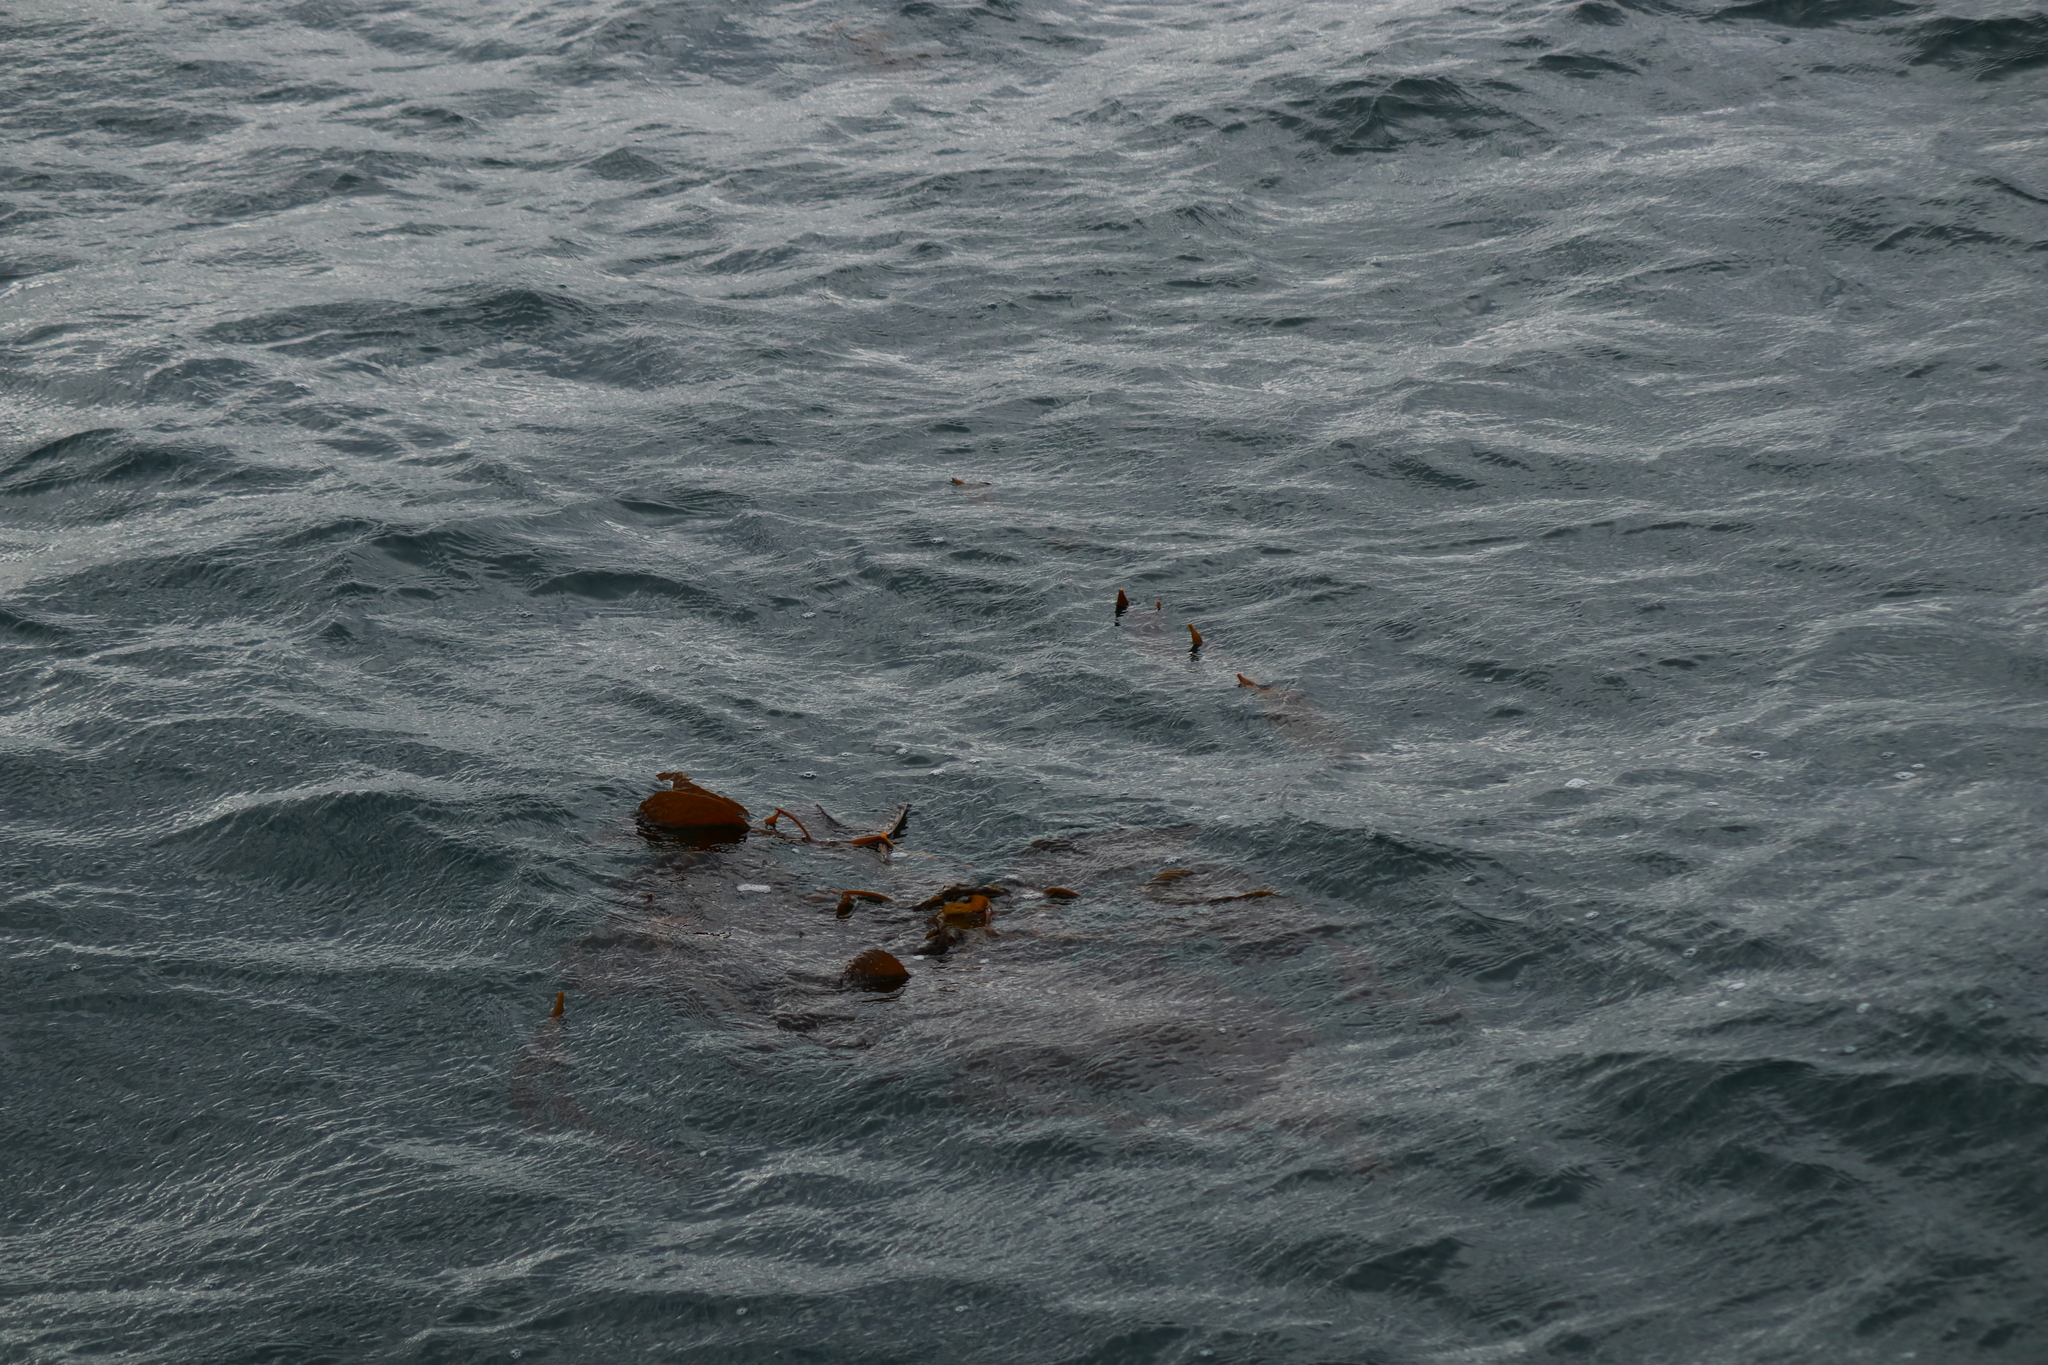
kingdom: Chromista
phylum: Ochrophyta
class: Phaeophyceae
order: Laminariales
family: Laminariaceae
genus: Macrocystis
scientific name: Macrocystis pyrifera
